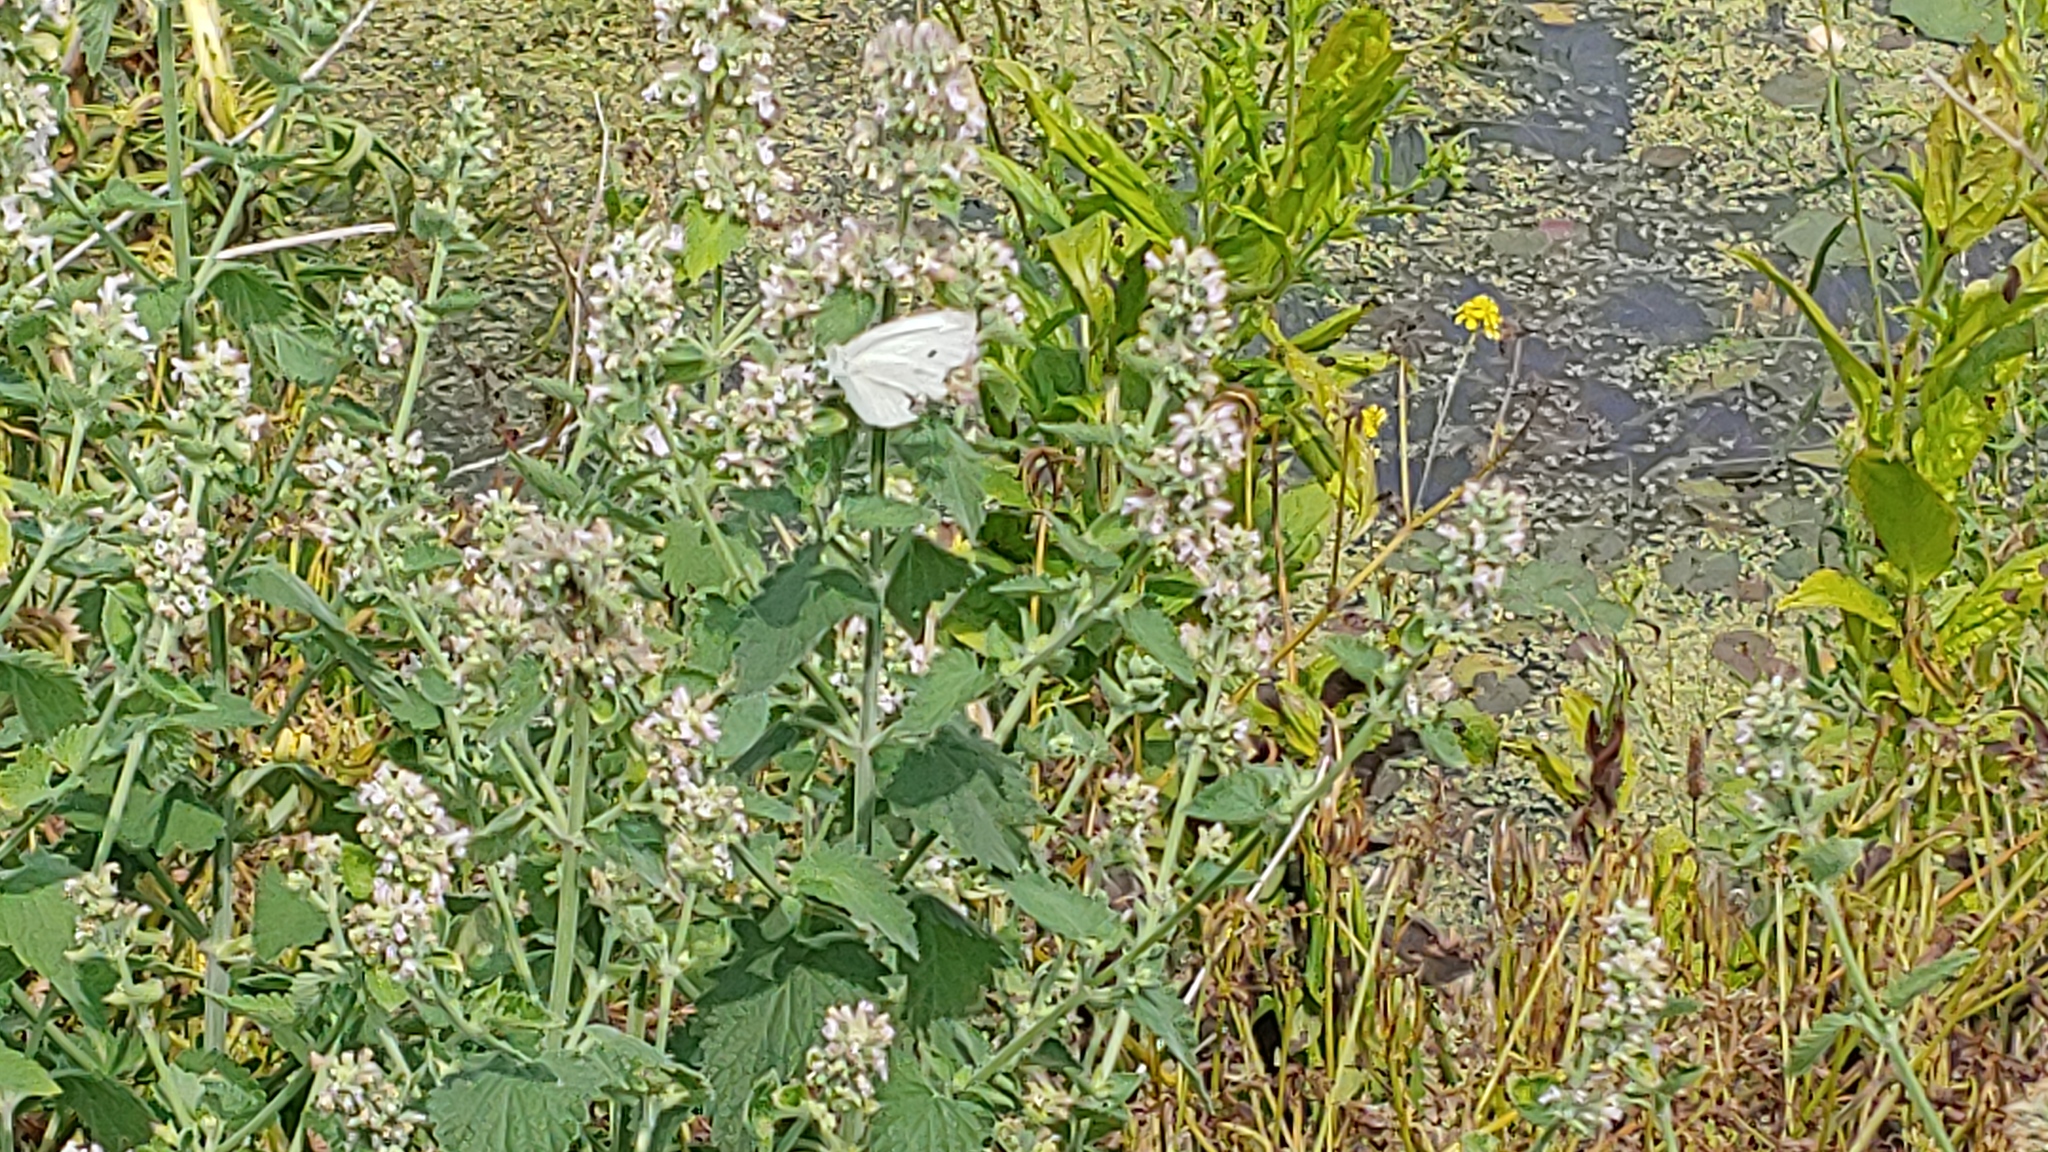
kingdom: Animalia
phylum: Arthropoda
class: Insecta
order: Lepidoptera
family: Pieridae
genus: Pieris
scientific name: Pieris rapae
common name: Small white
